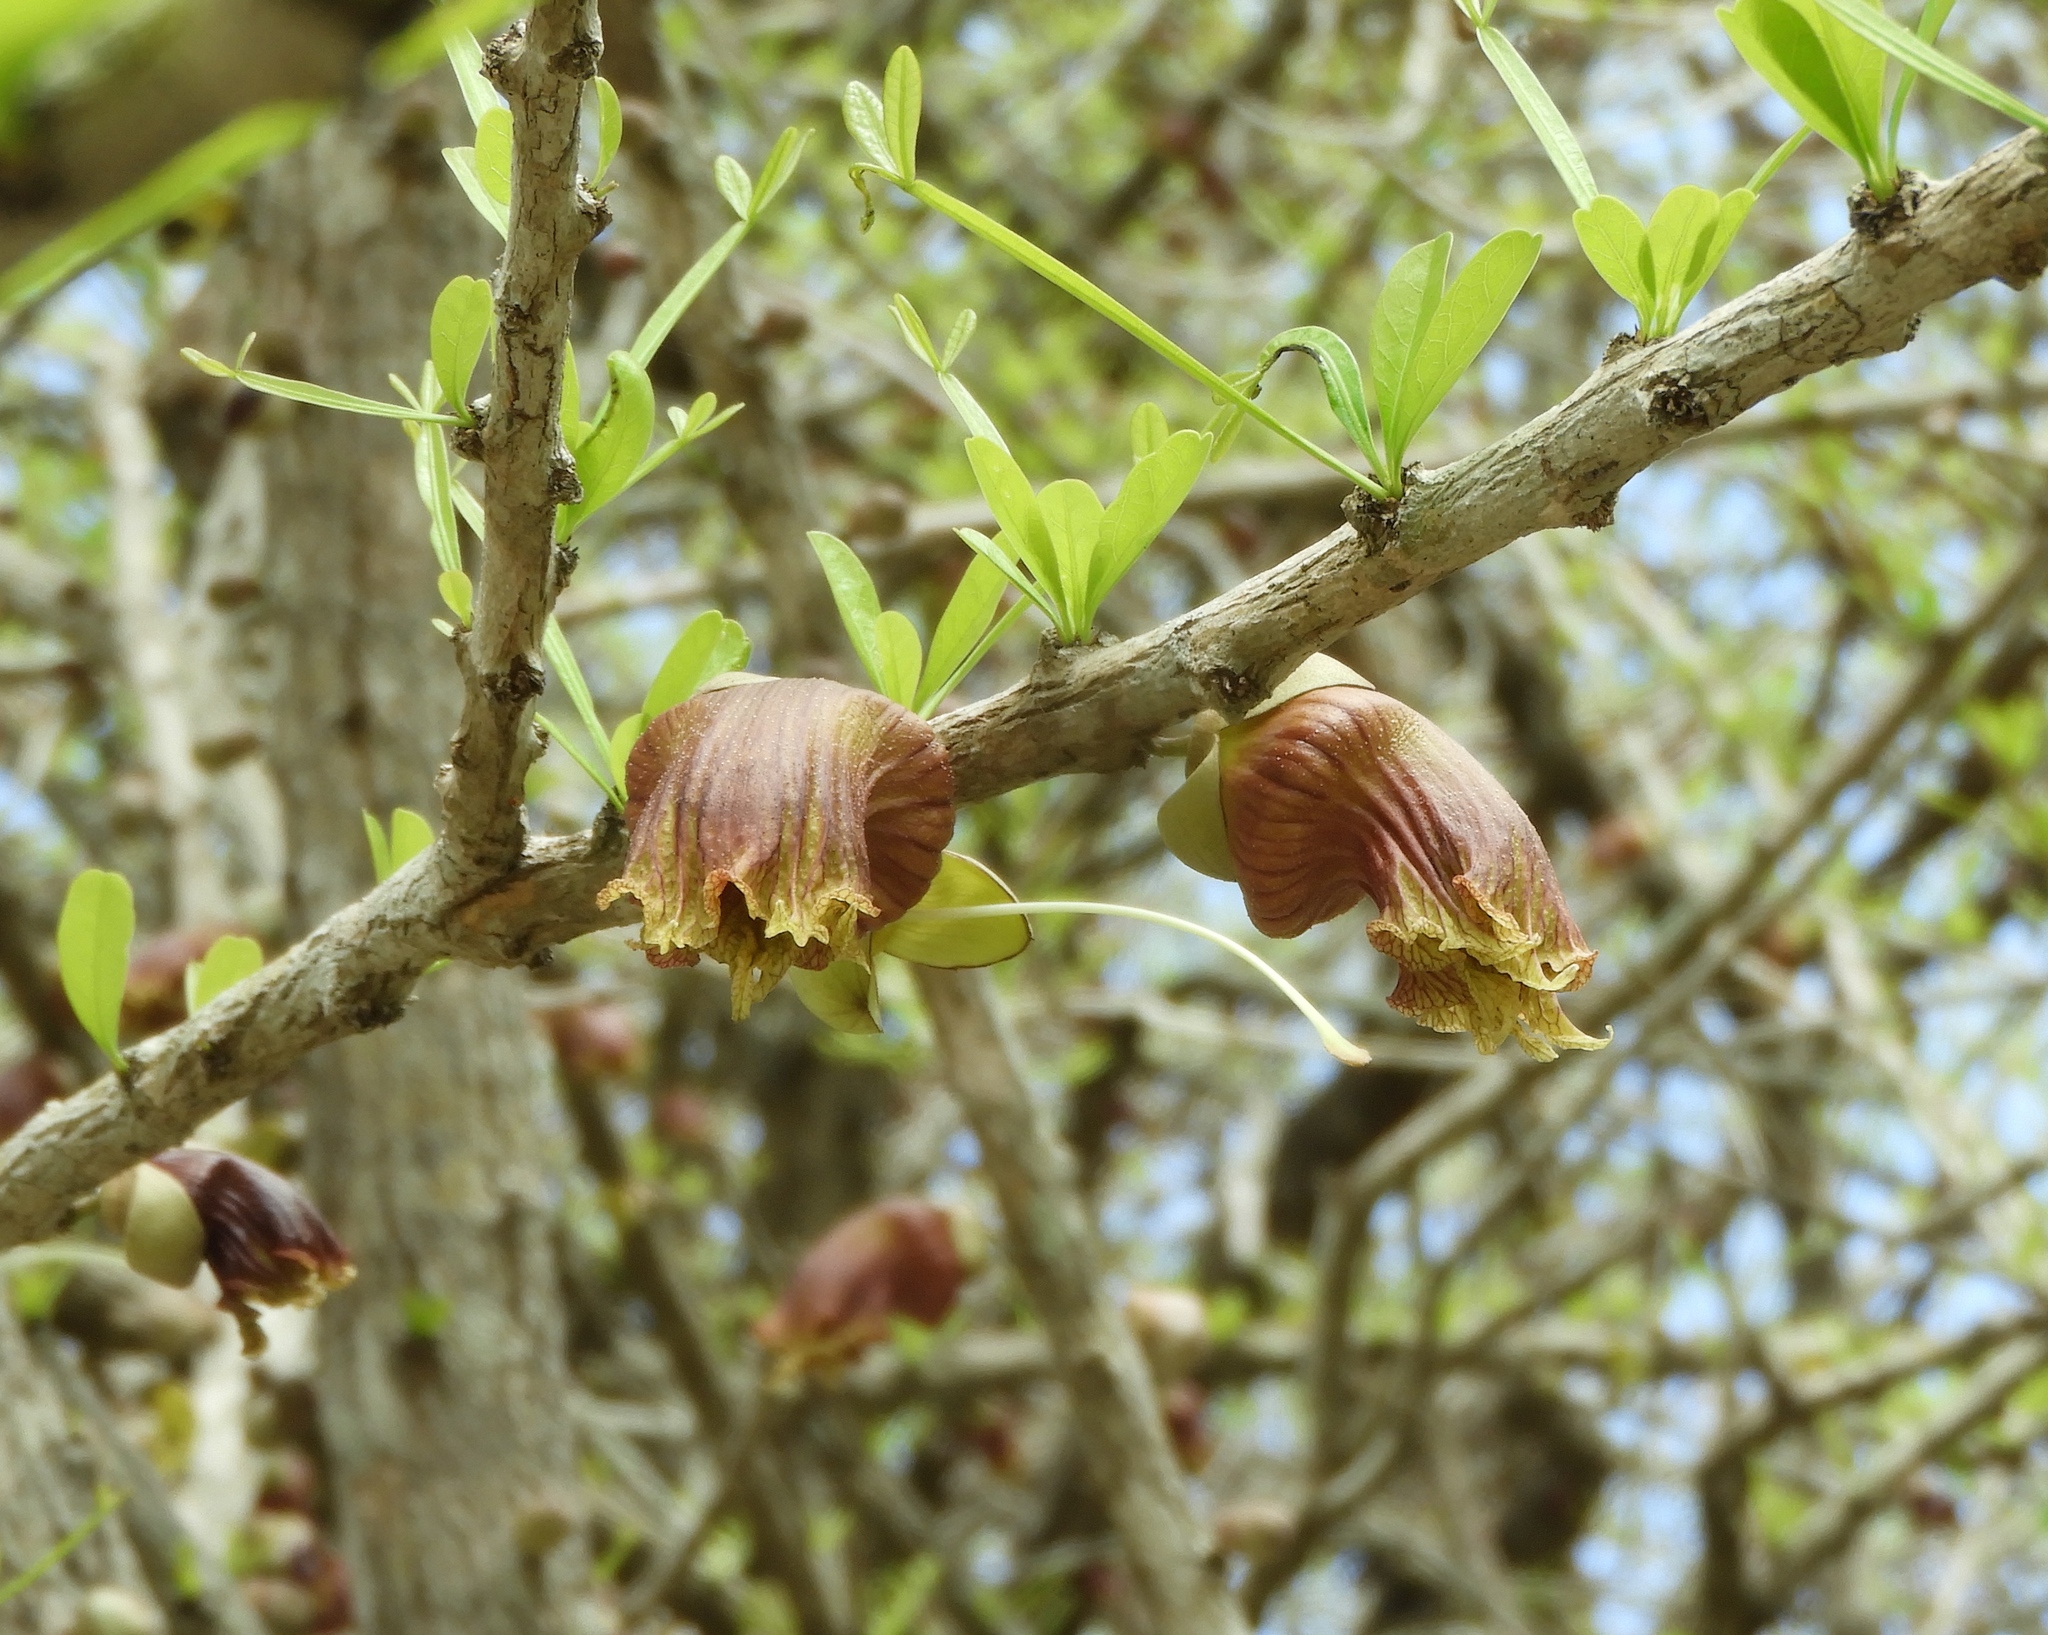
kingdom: Plantae
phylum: Tracheophyta
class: Magnoliopsida
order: Lamiales
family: Bignoniaceae
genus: Crescentia
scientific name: Crescentia alata
